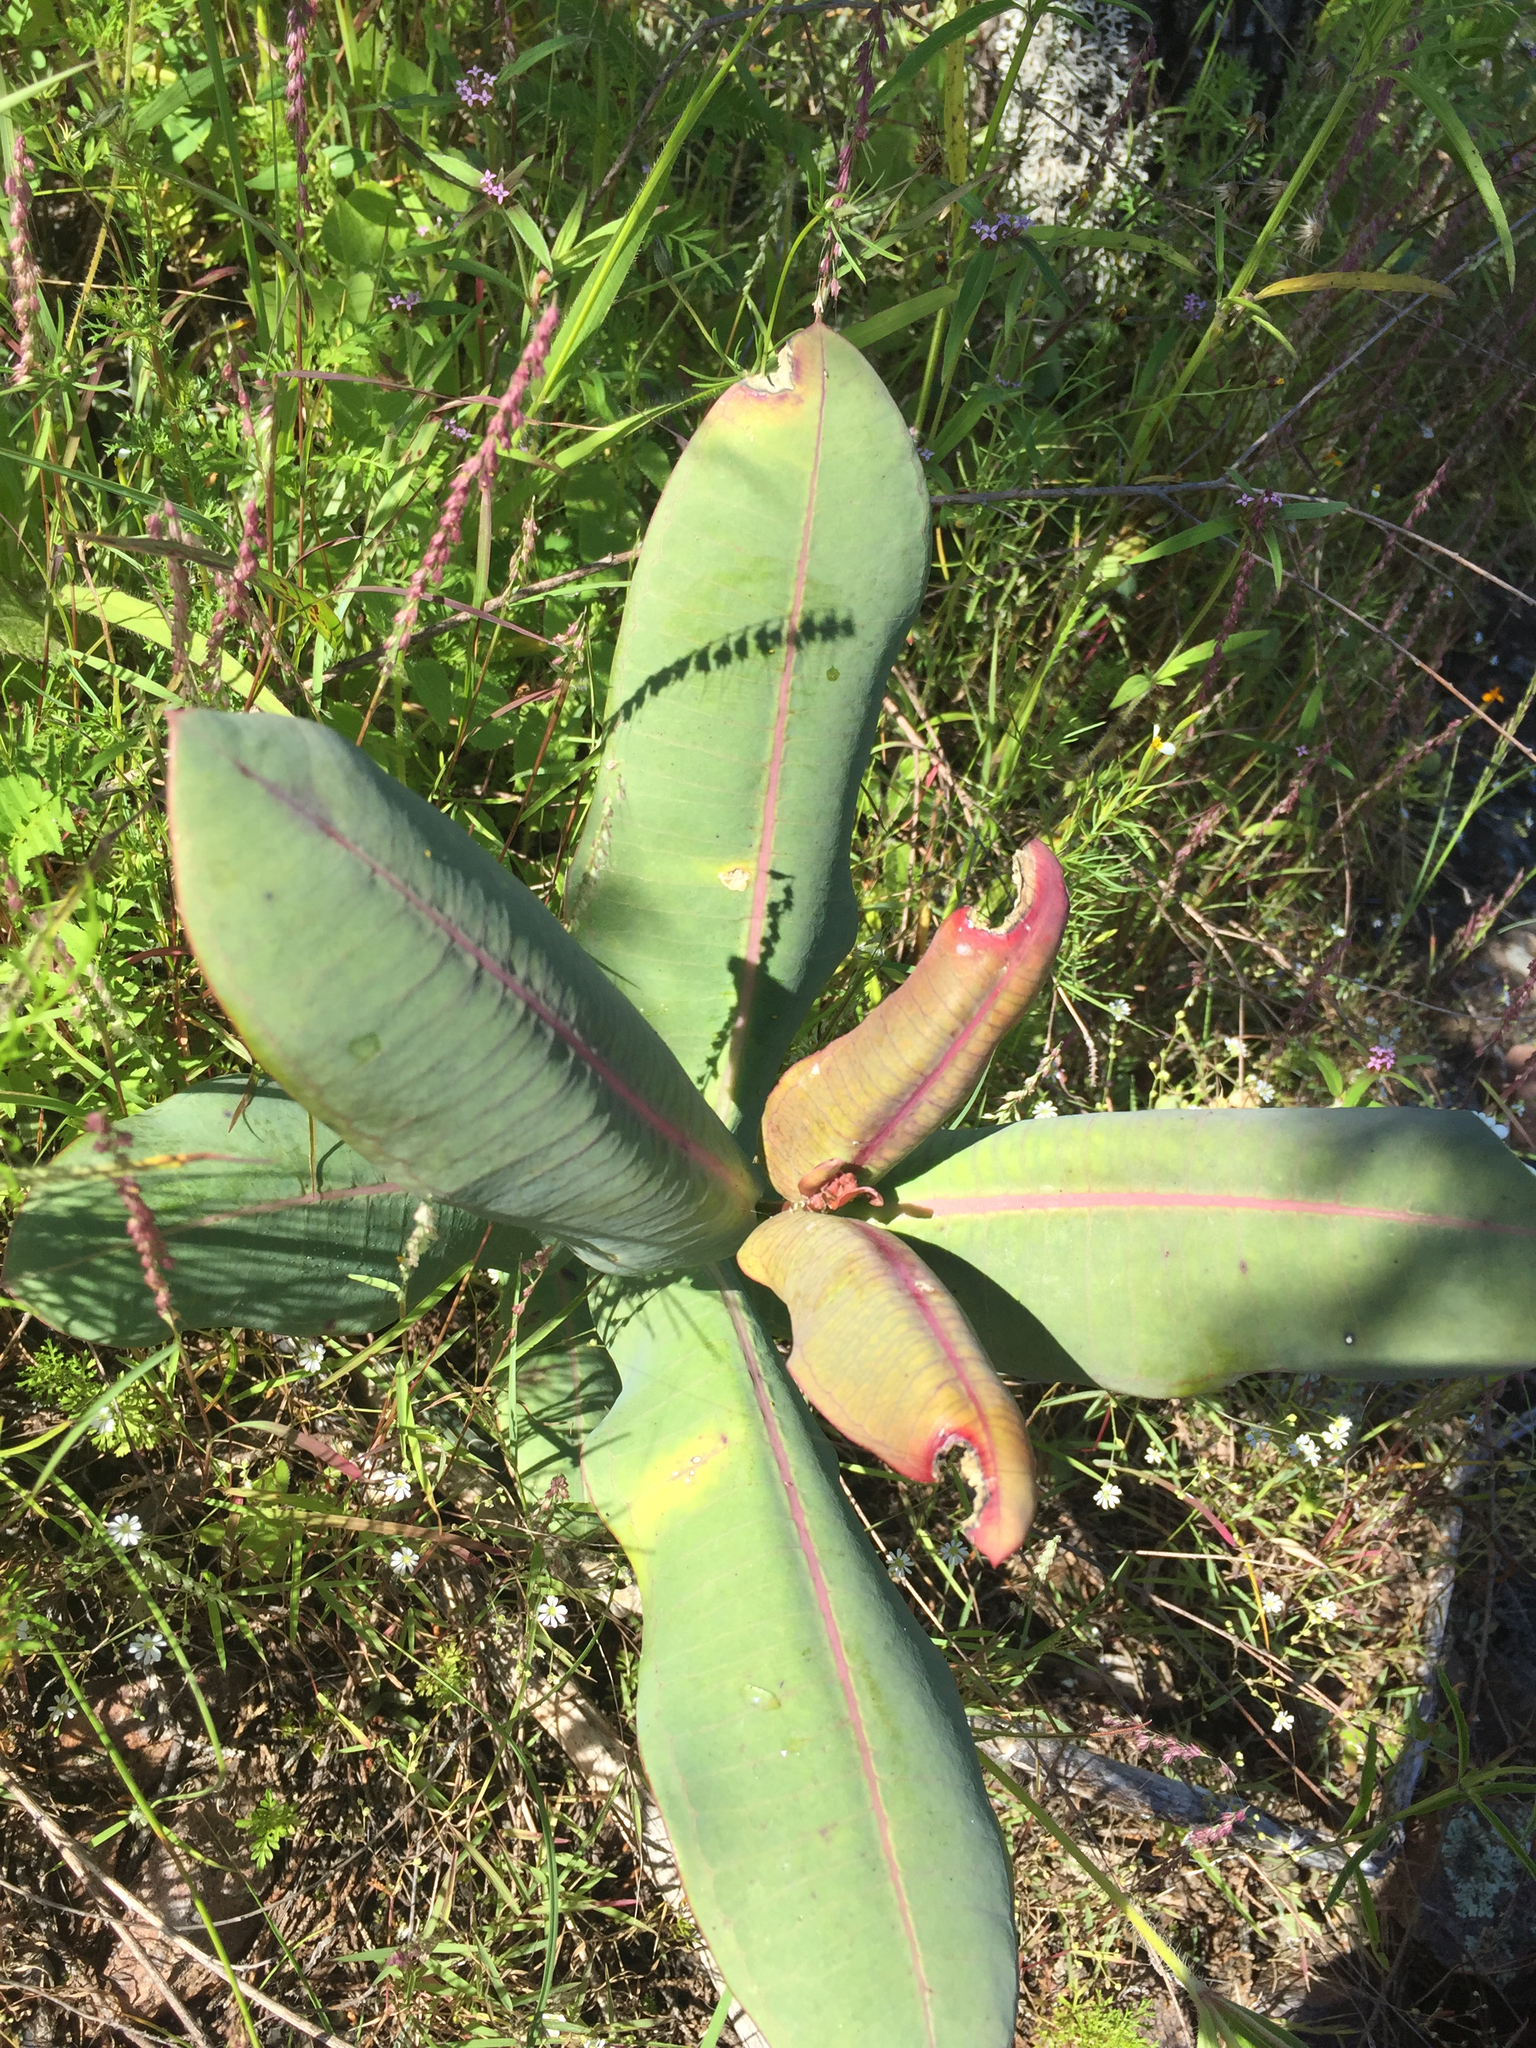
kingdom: Plantae
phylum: Tracheophyta
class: Magnoliopsida
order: Gentianales
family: Apocynaceae
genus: Asclepias
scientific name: Asclepias mirifica
